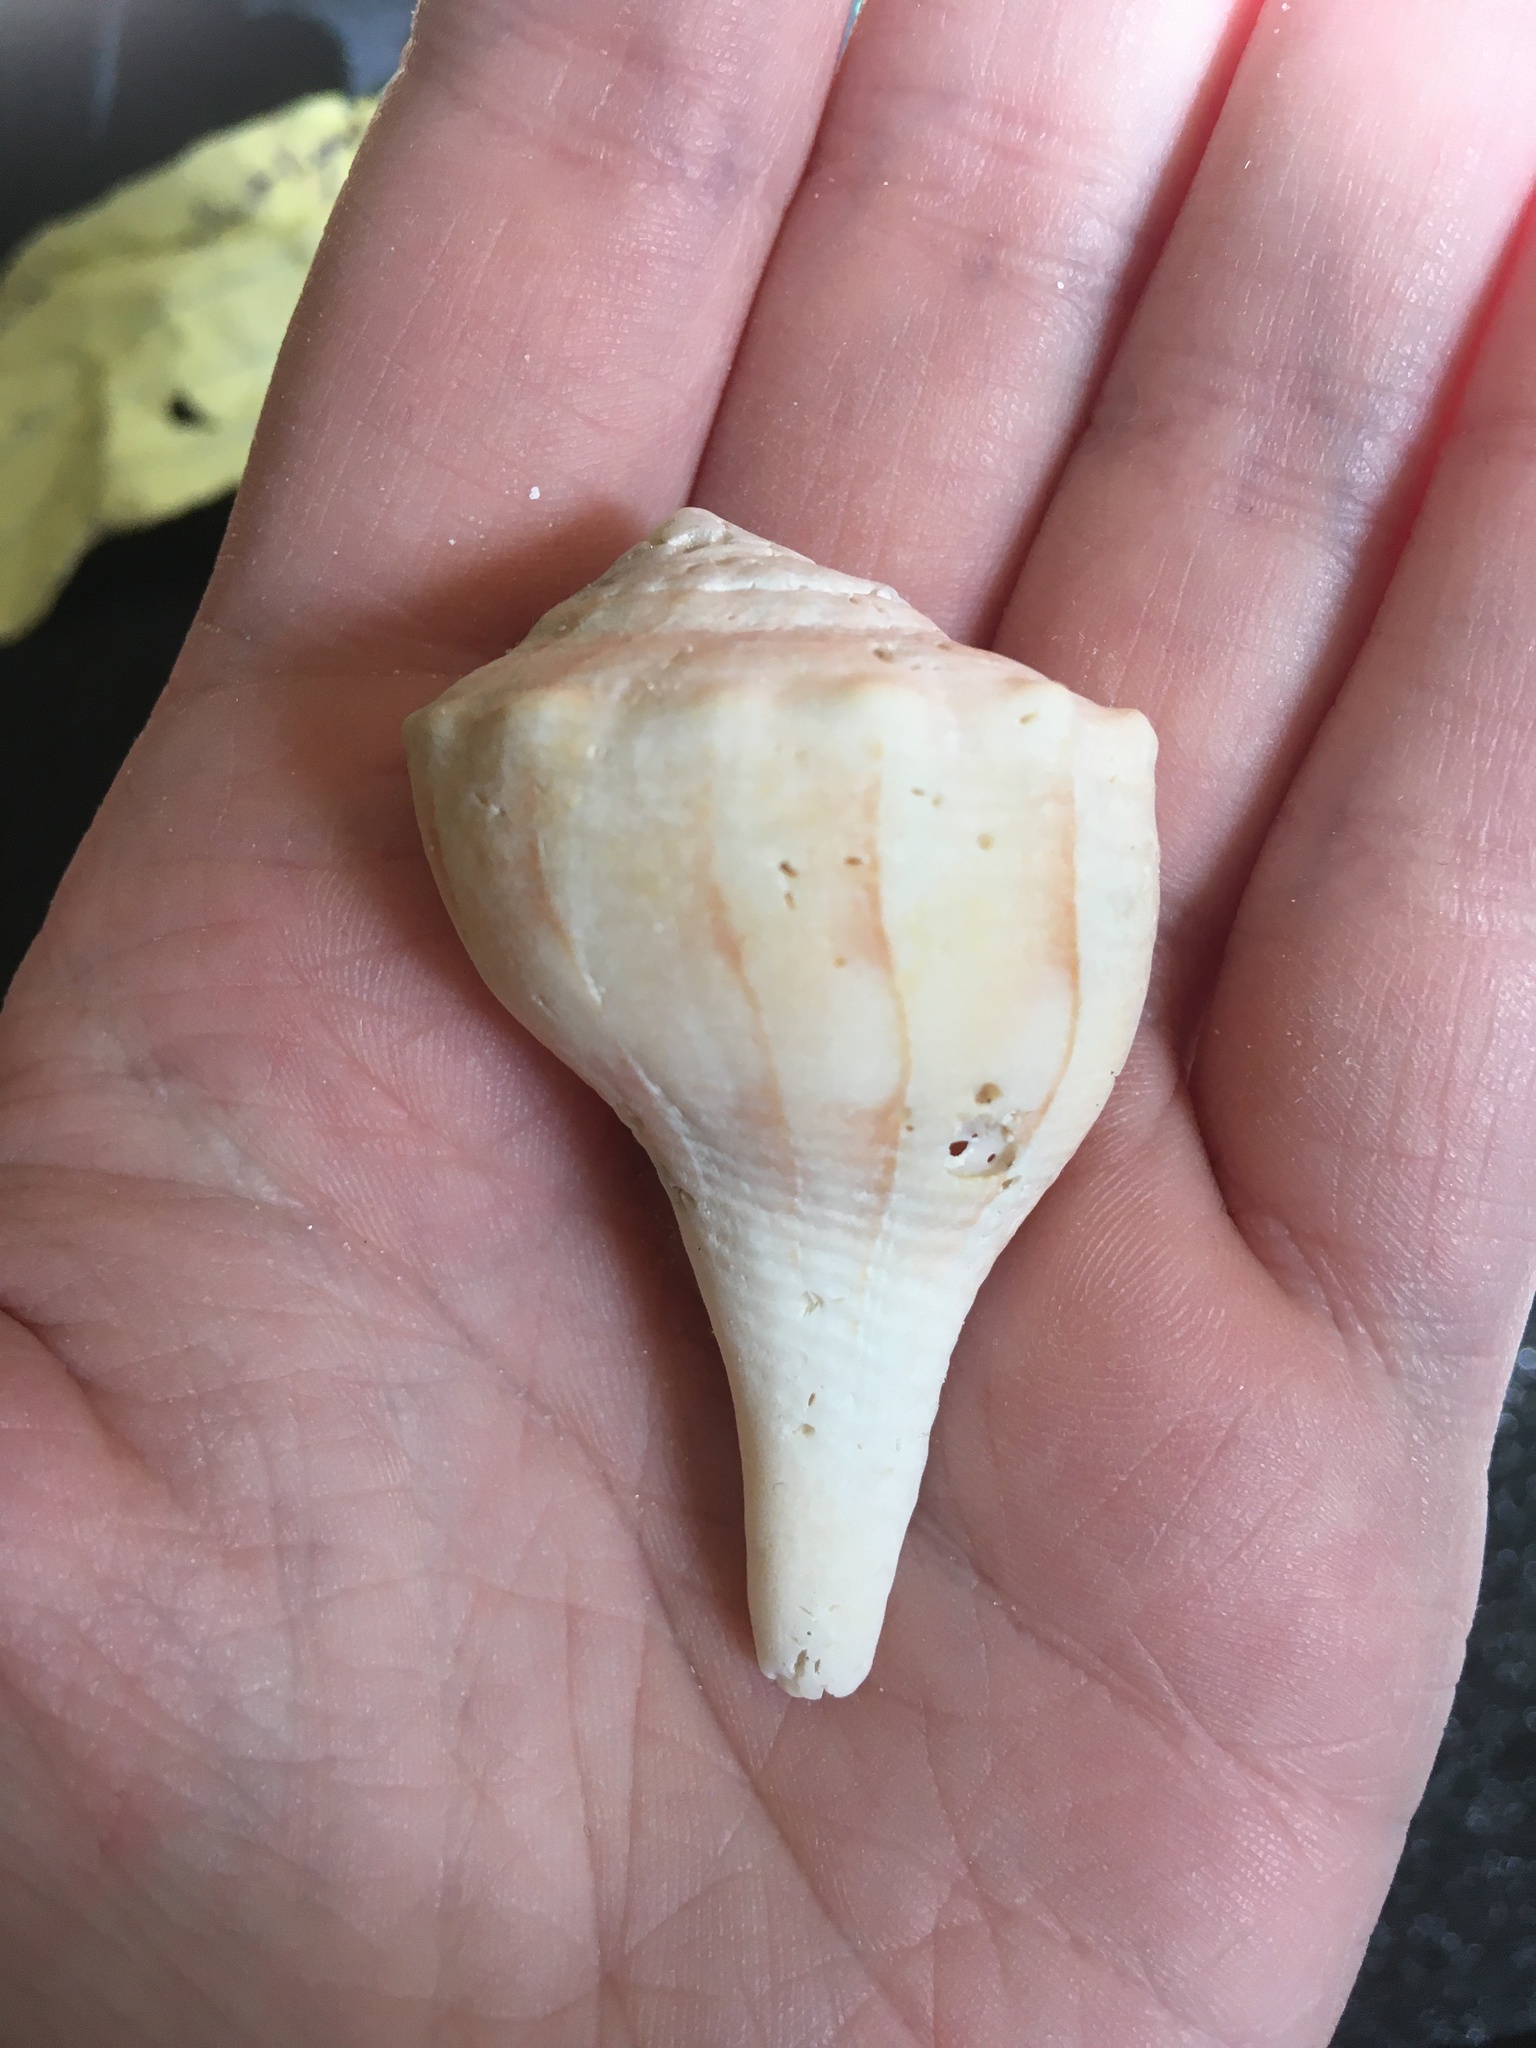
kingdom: Animalia
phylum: Mollusca
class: Gastropoda
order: Neogastropoda
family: Busyconidae
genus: Sinistrofulgur
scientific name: Sinistrofulgur sinistrum
